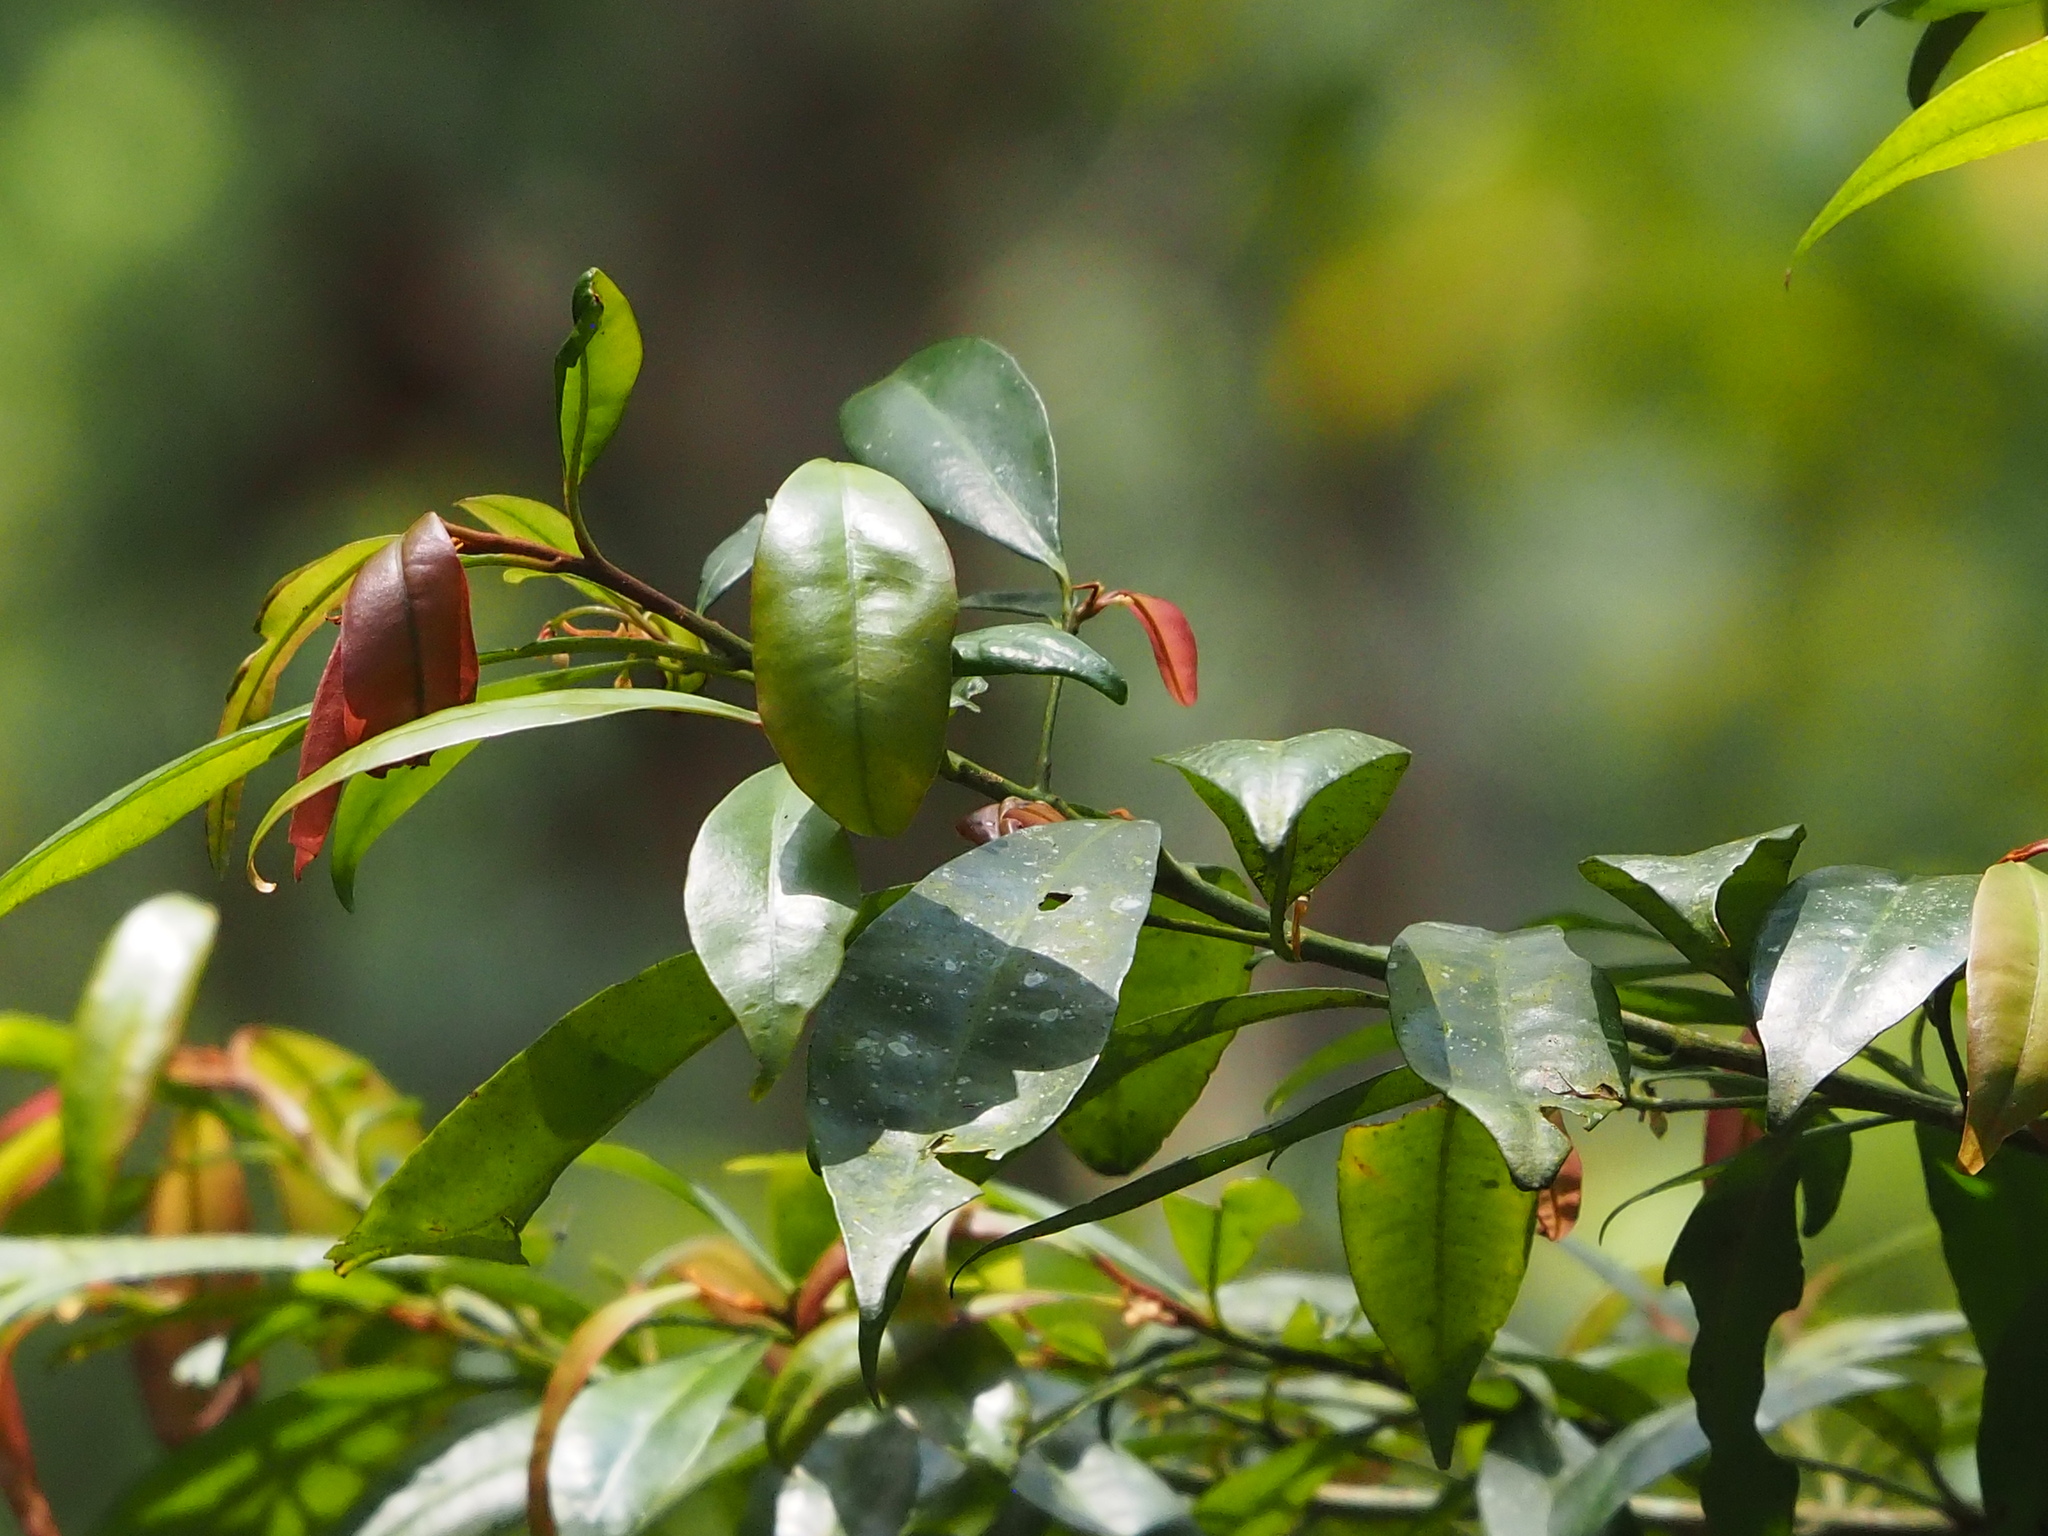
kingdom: Plantae
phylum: Tracheophyta
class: Magnoliopsida
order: Ericales
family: Primulaceae
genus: Ardisia
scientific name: Ardisia quinquegona
